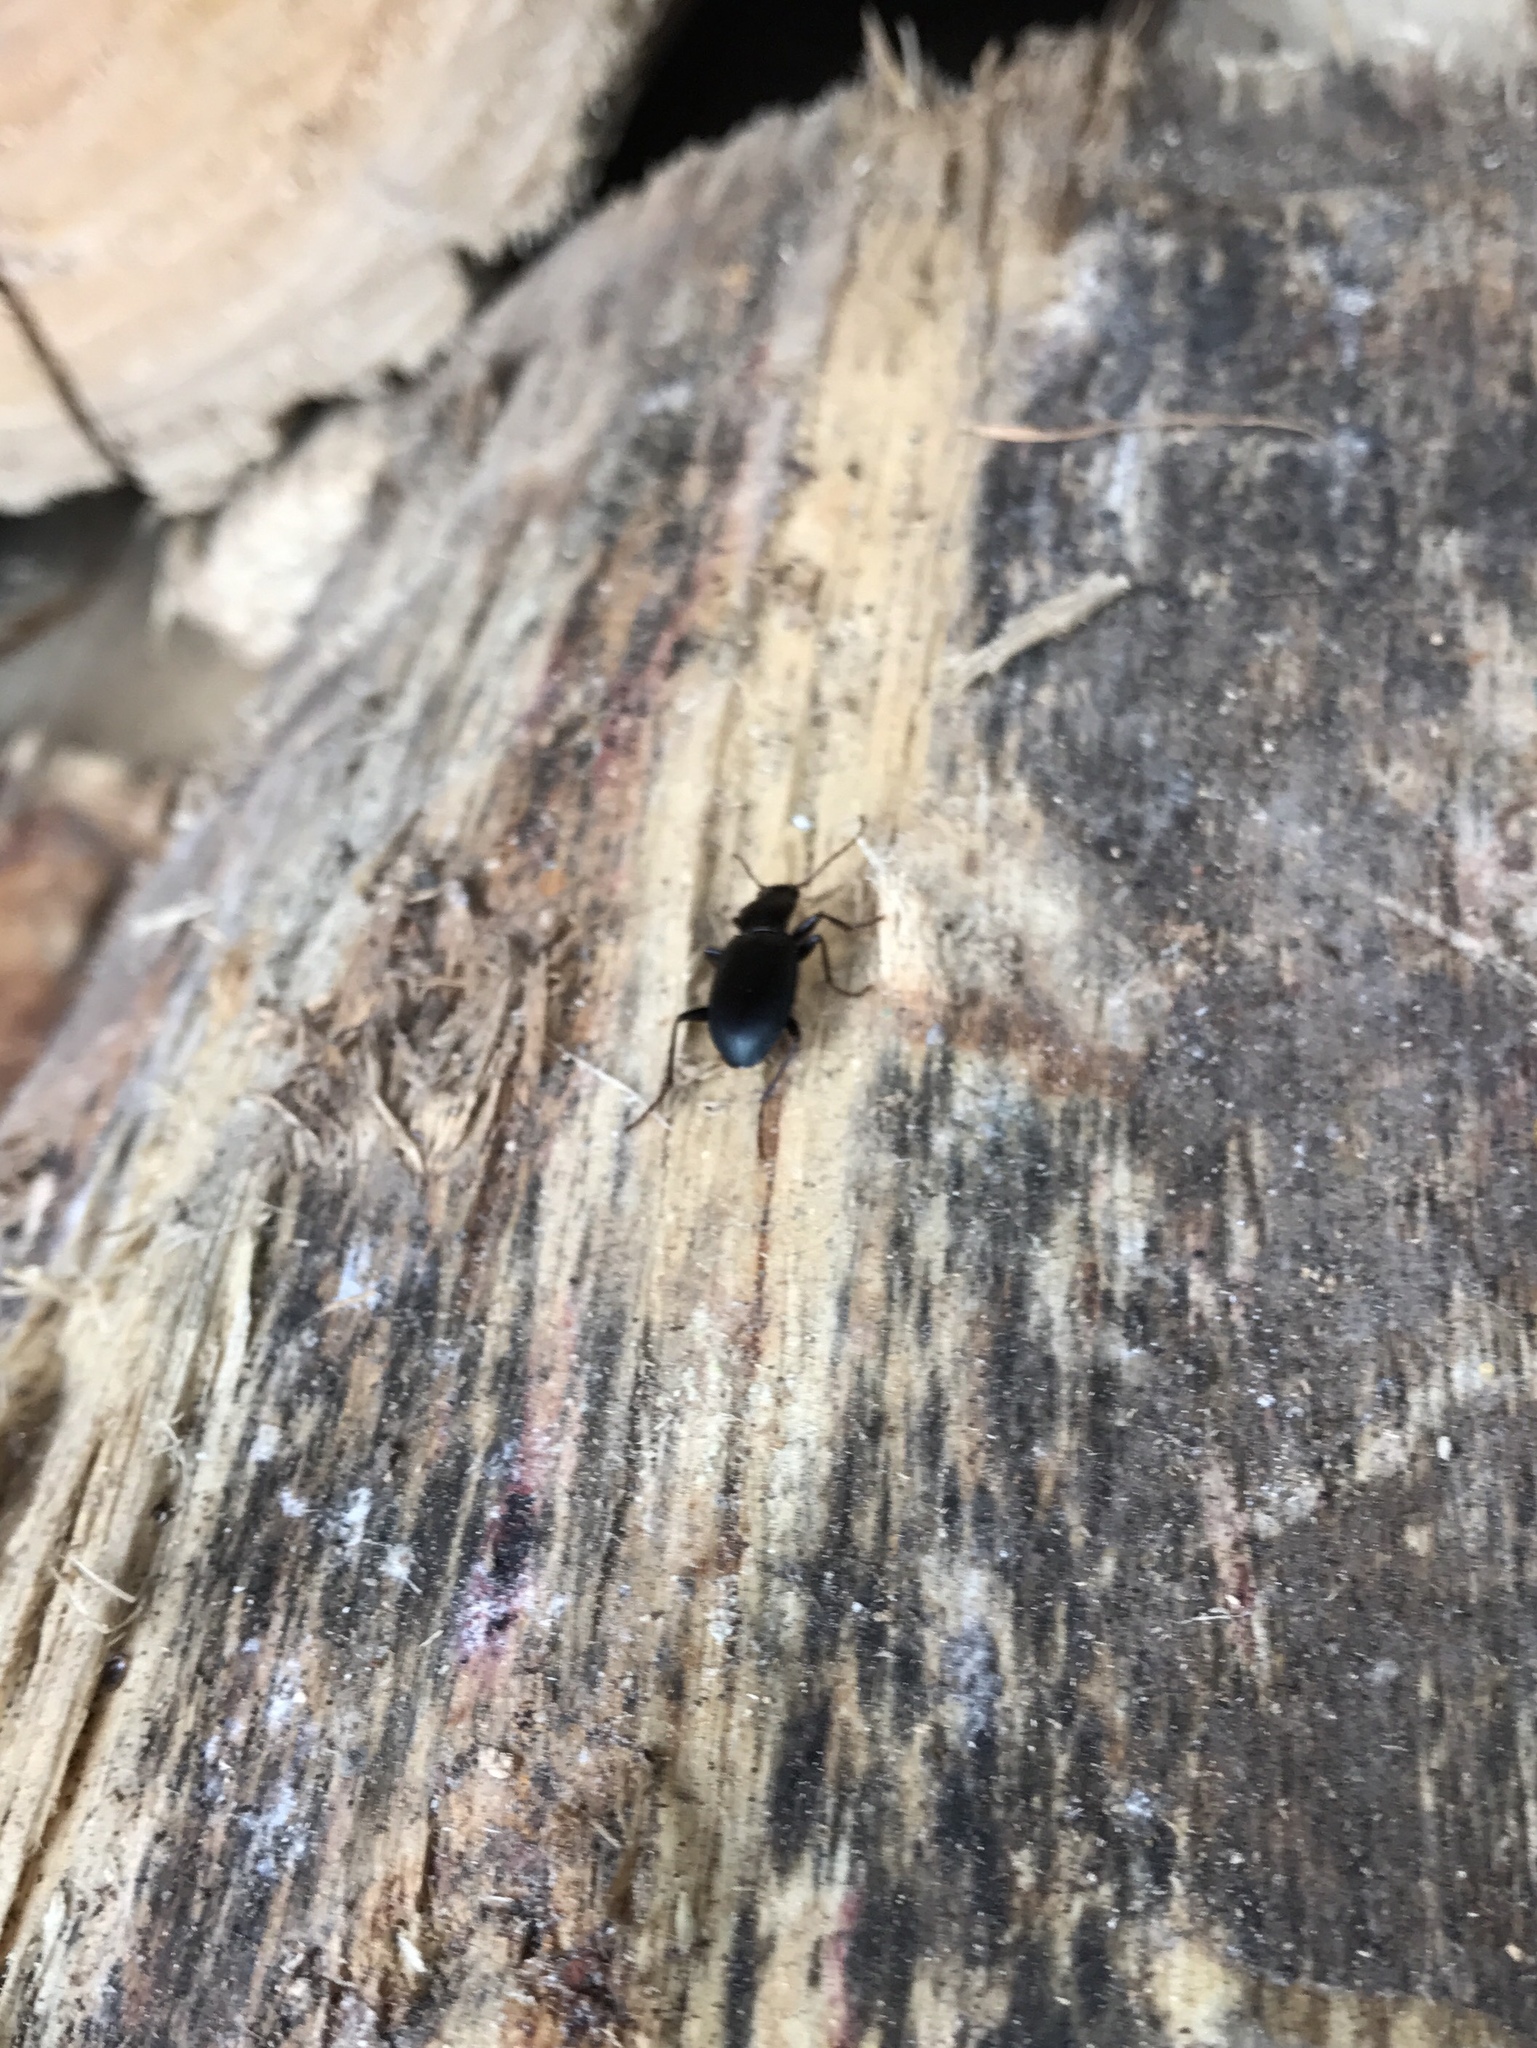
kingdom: Animalia
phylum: Arthropoda
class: Insecta
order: Coleoptera
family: Carabidae
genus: Laemostenus
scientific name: Laemostenus complanatus
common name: Cosmopolitan ground beetle
